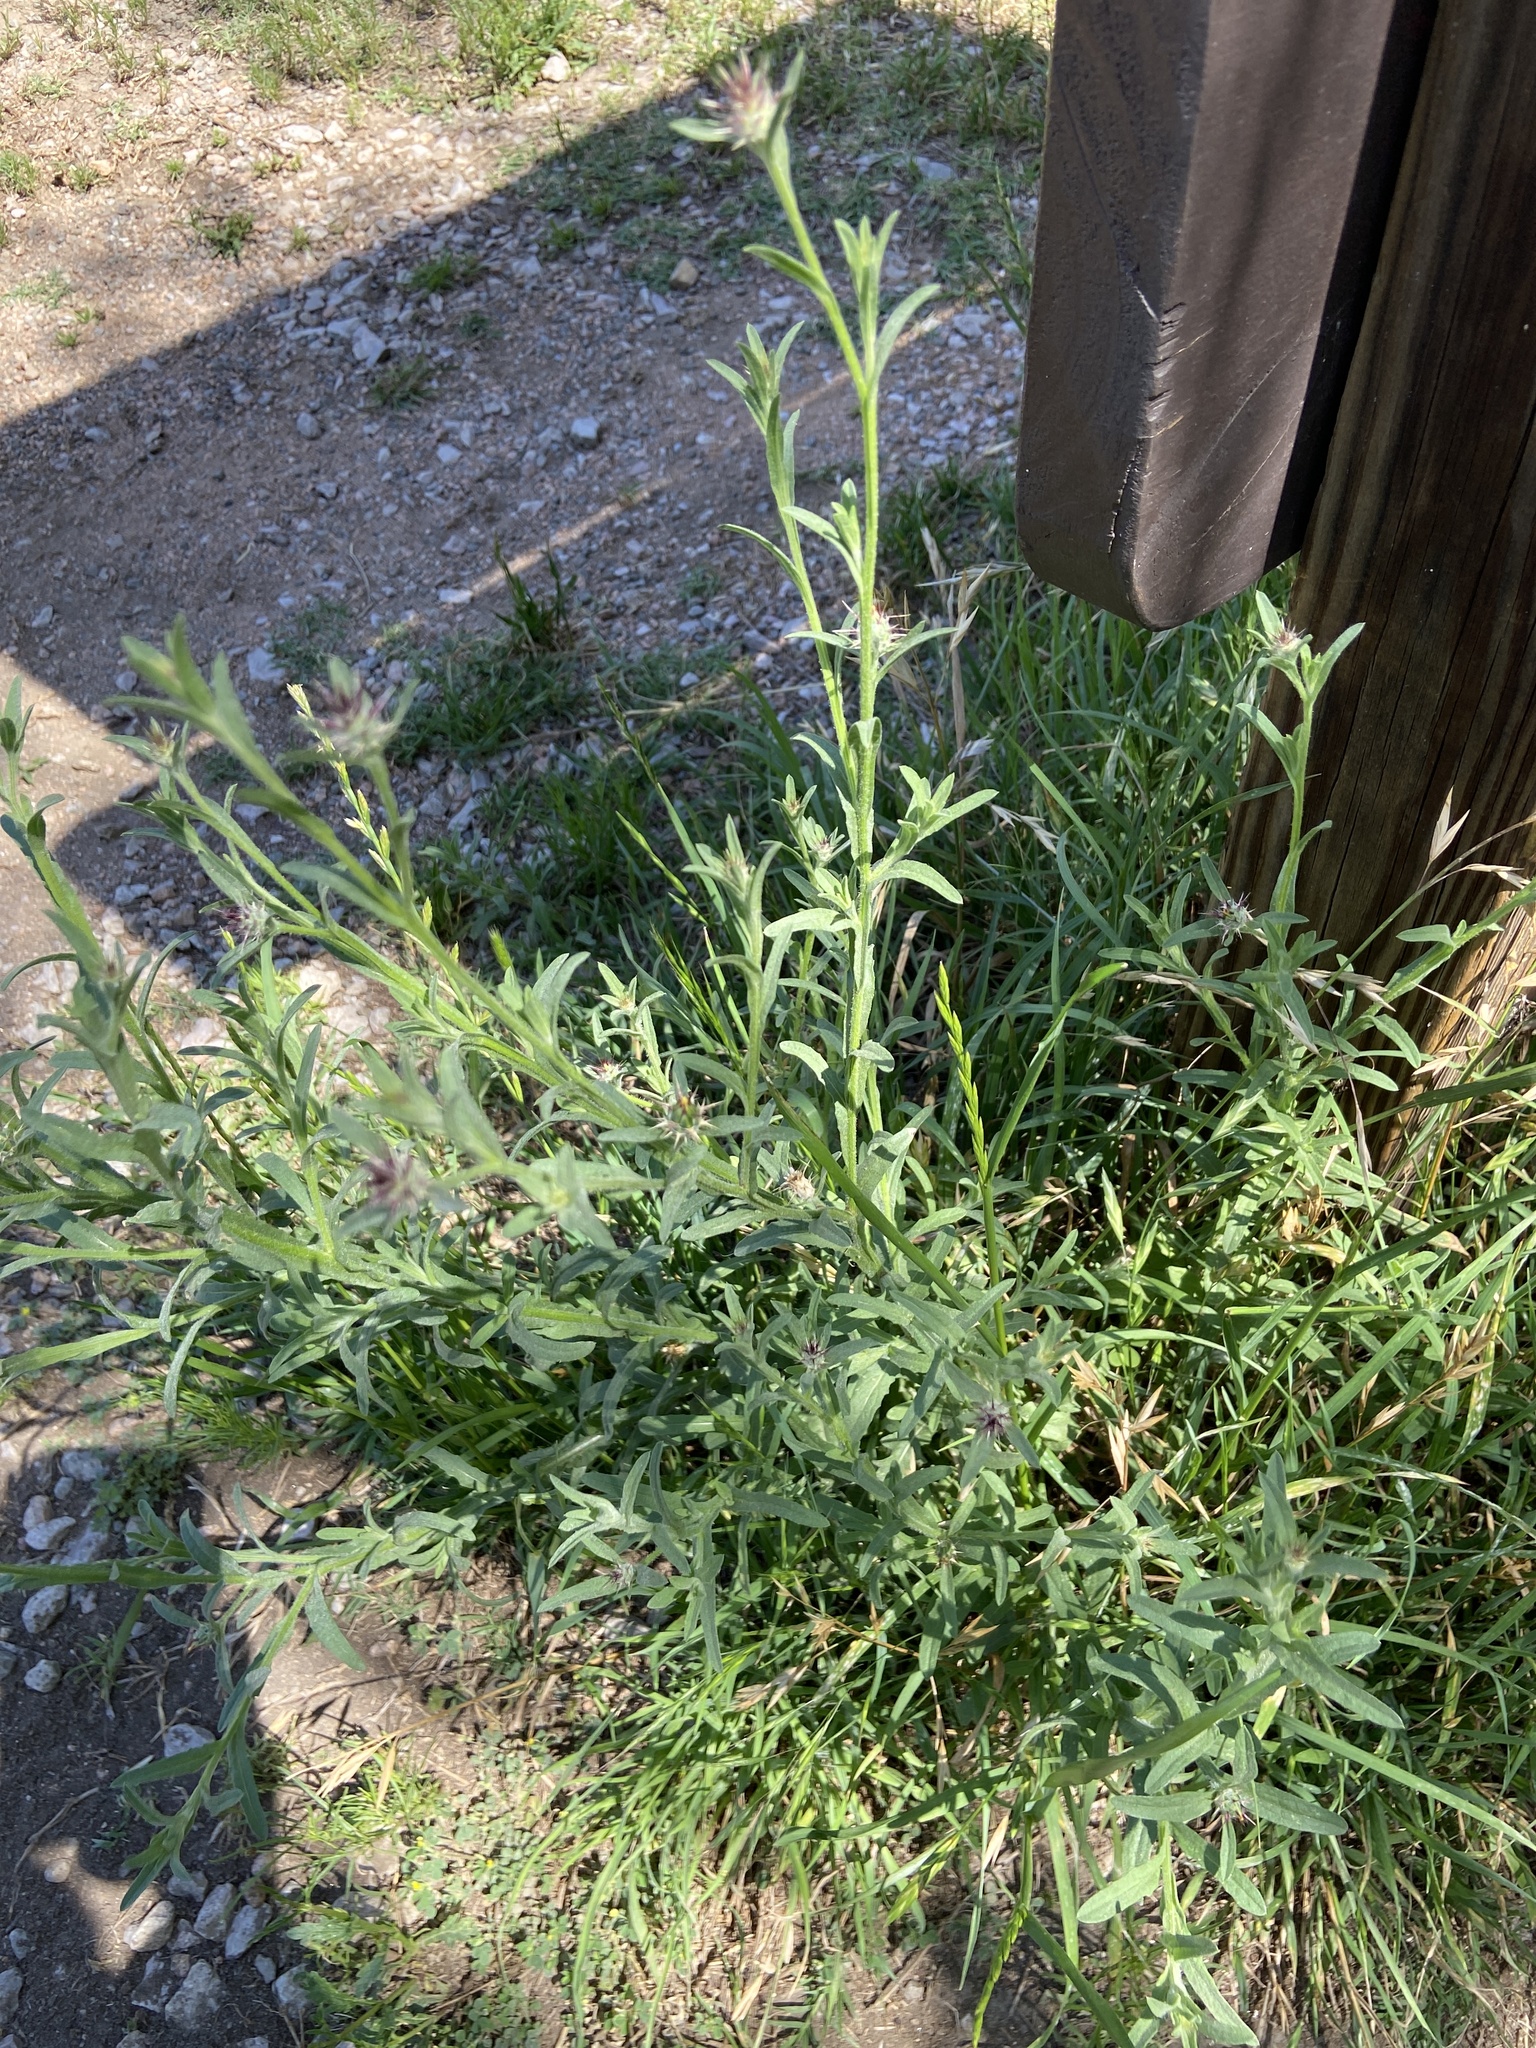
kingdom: Plantae
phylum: Tracheophyta
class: Magnoliopsida
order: Asterales
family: Asteraceae
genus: Centaurea
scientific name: Centaurea melitensis
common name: Maltese star-thistle
